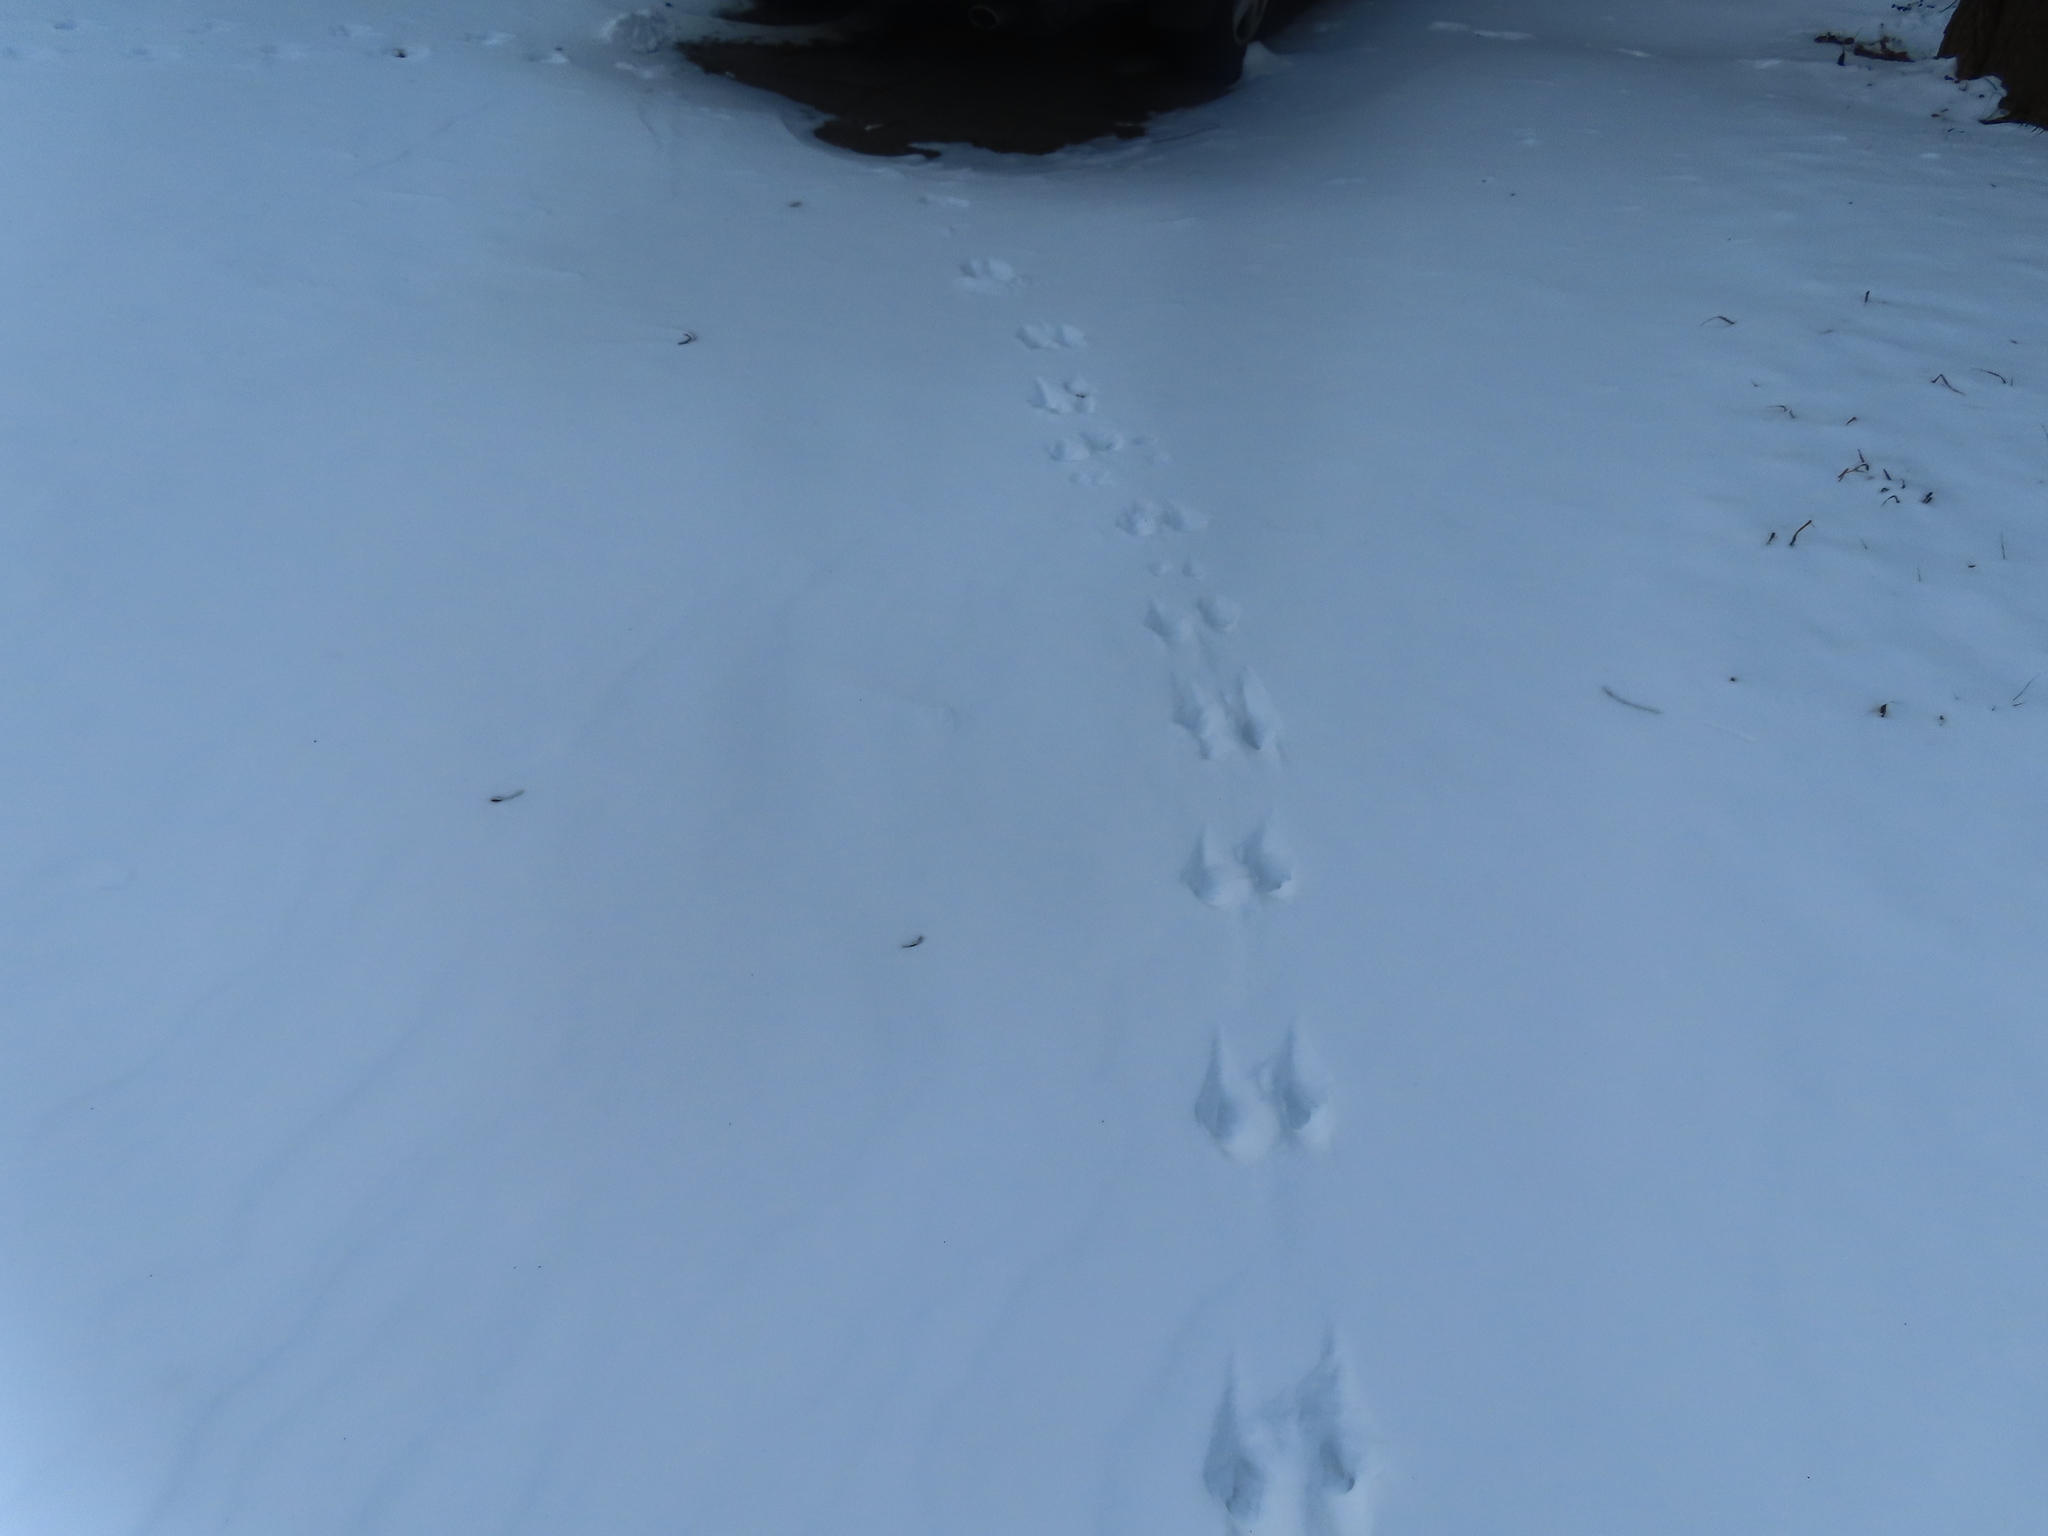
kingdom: Animalia
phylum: Chordata
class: Mammalia
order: Rodentia
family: Sciuridae
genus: Sciurus
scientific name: Sciurus carolinensis
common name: Eastern gray squirrel
